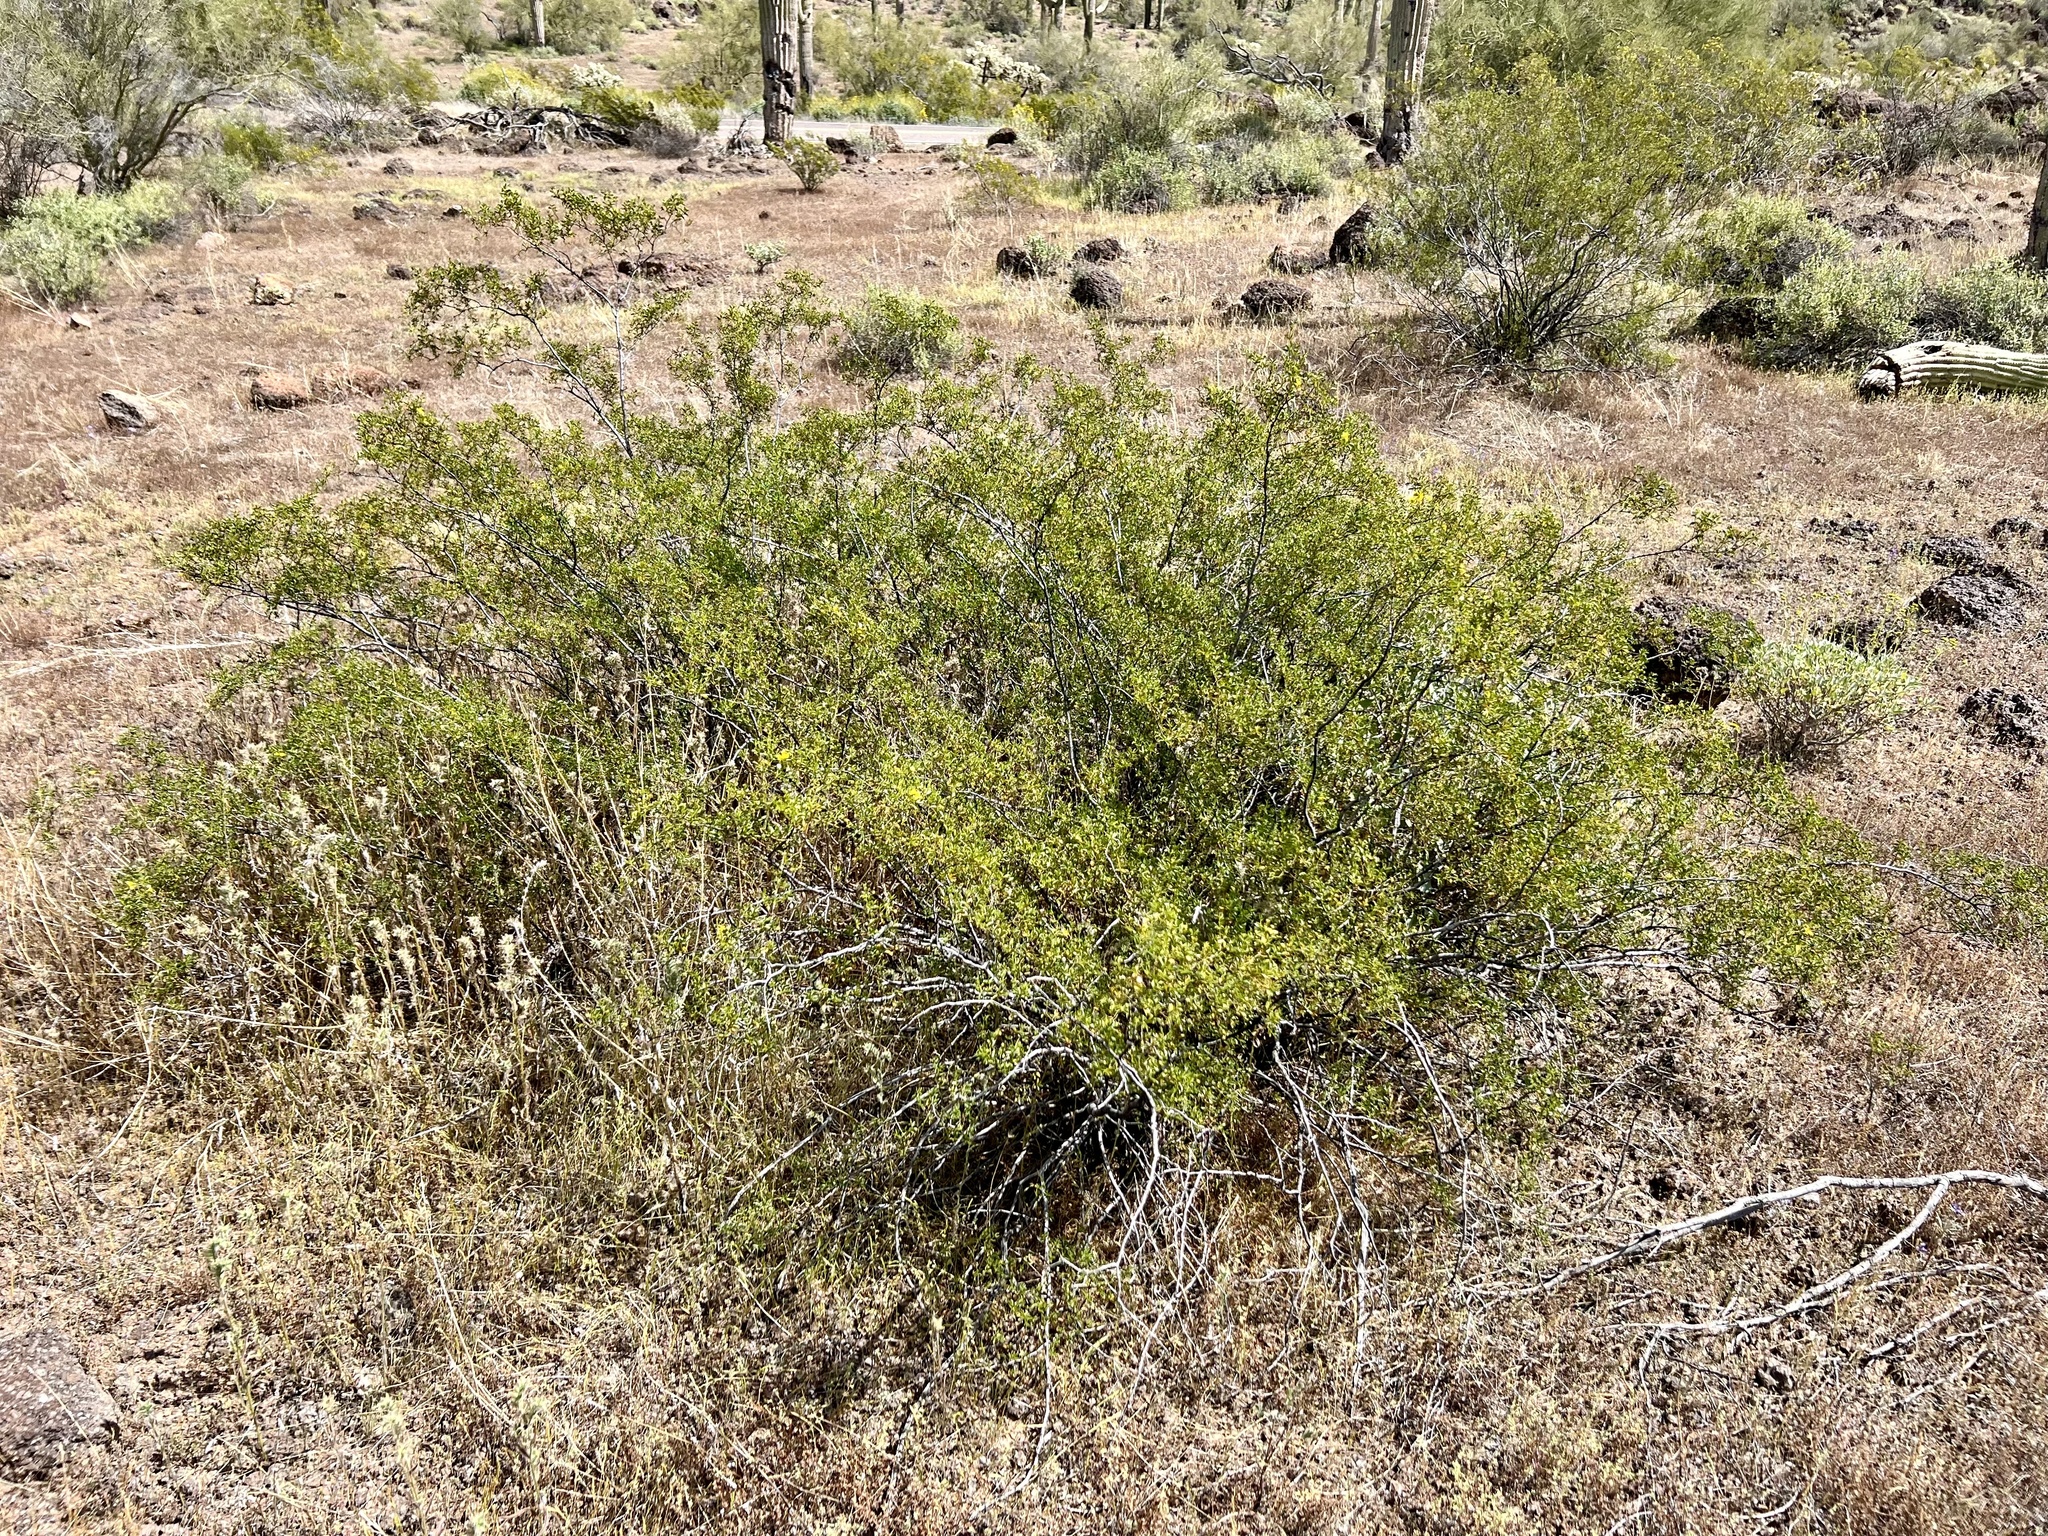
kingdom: Plantae
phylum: Tracheophyta
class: Magnoliopsida
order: Zygophyllales
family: Zygophyllaceae
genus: Larrea
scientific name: Larrea tridentata
